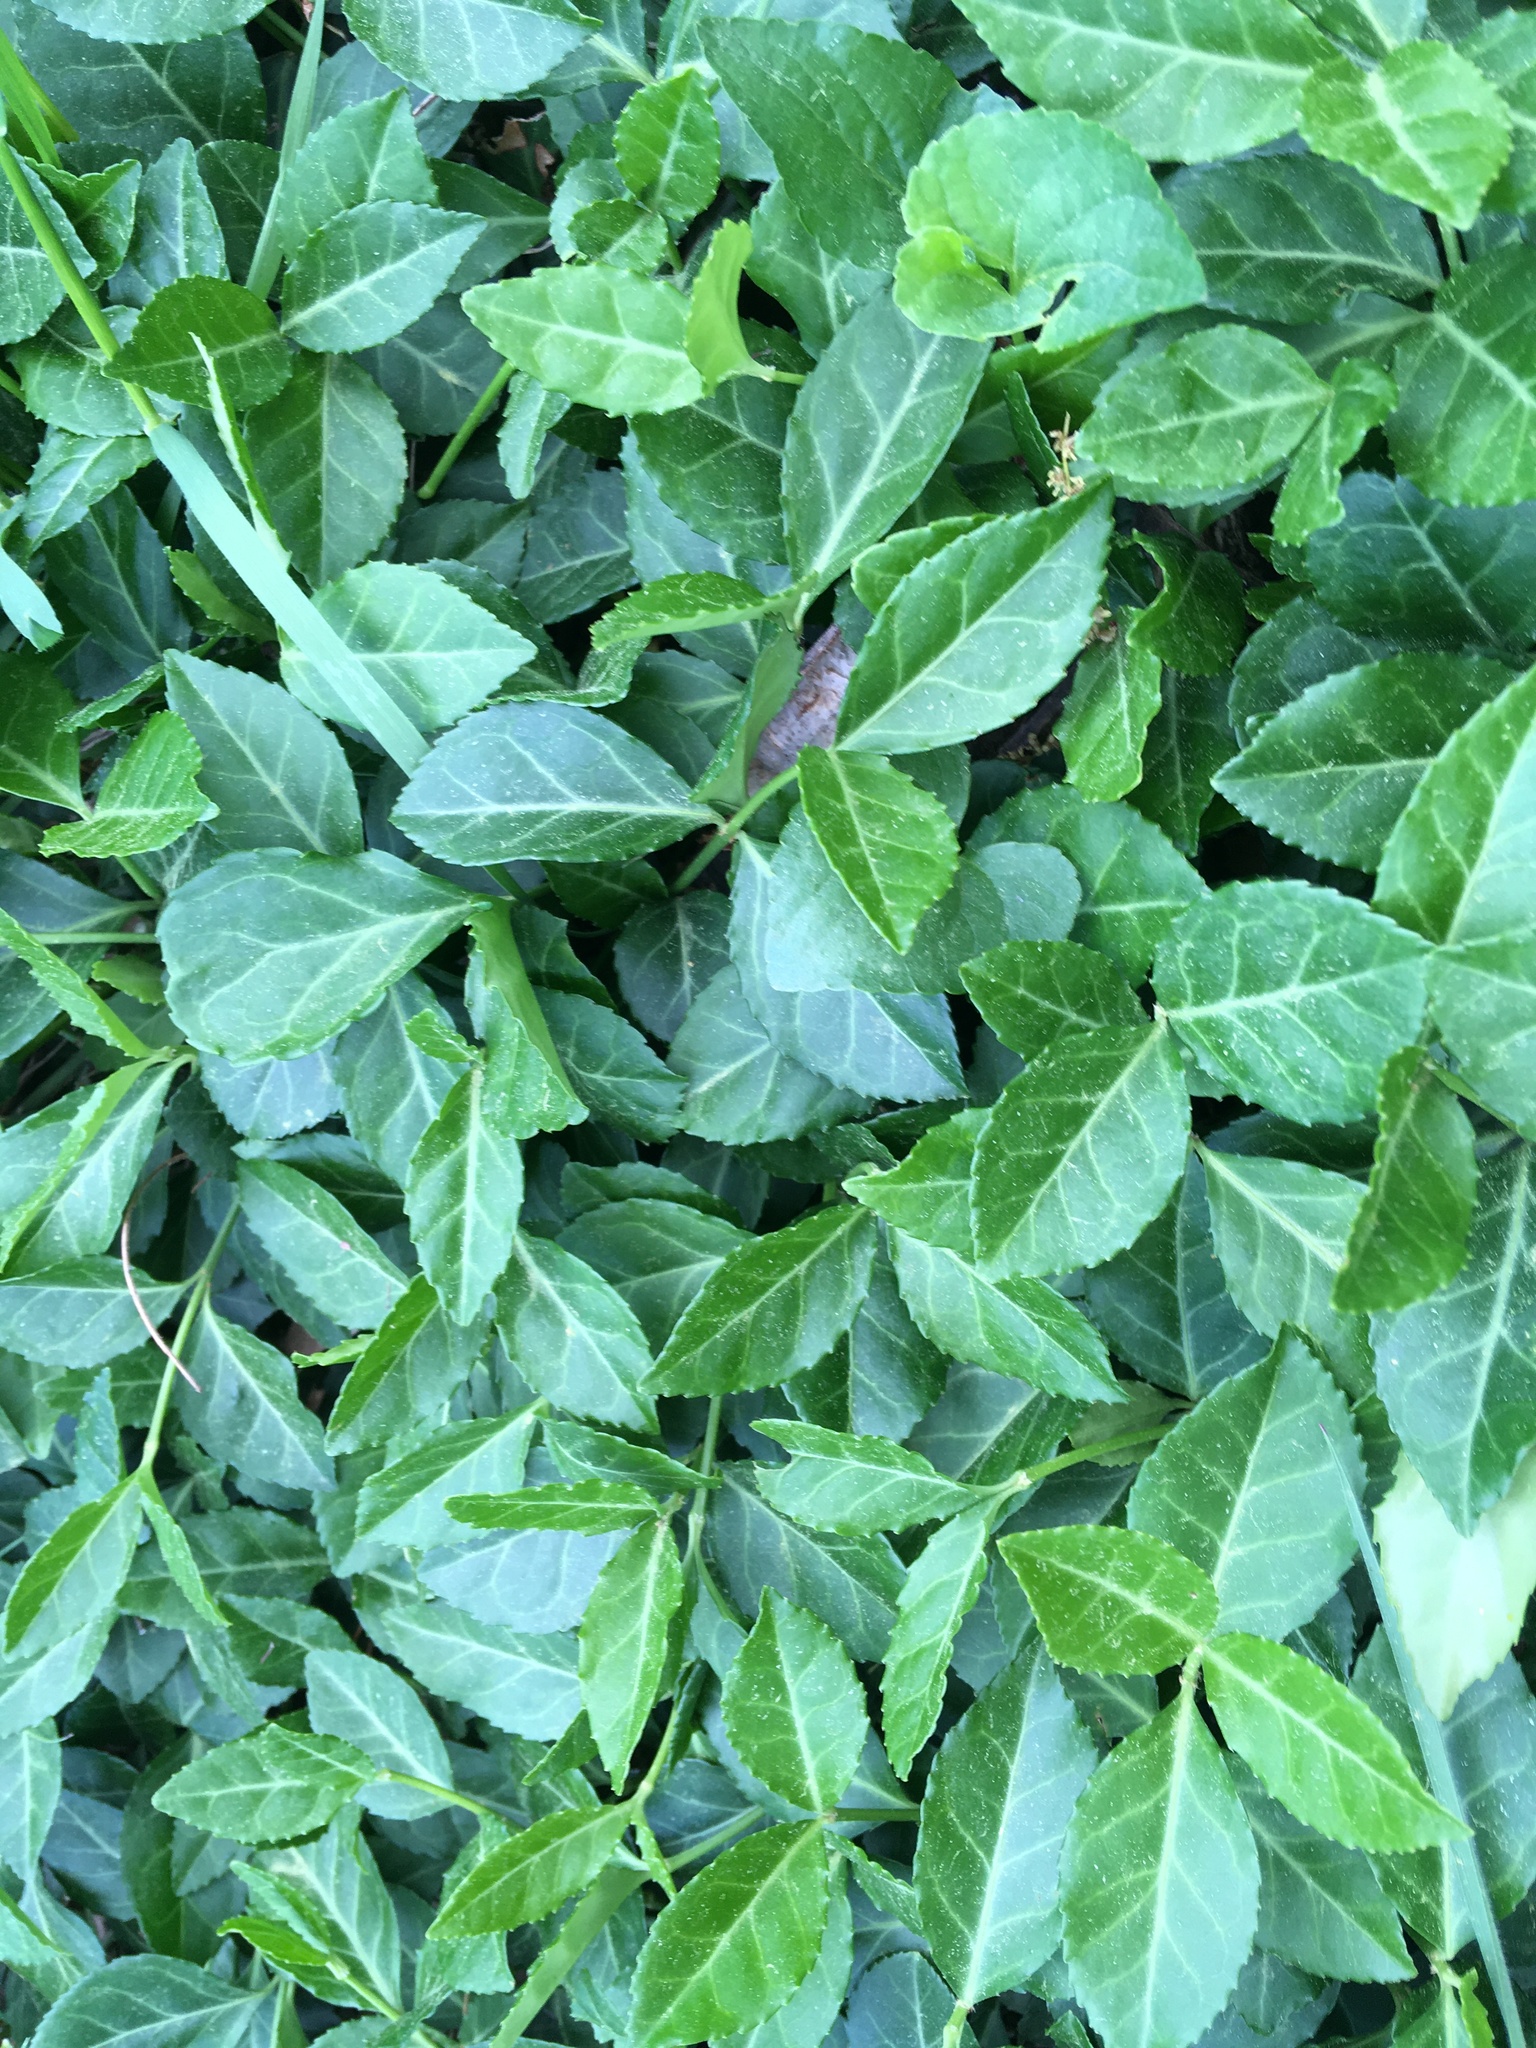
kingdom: Plantae
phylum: Tracheophyta
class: Magnoliopsida
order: Celastrales
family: Celastraceae
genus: Euonymus
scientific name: Euonymus fortunei
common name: Climbing euonymus
